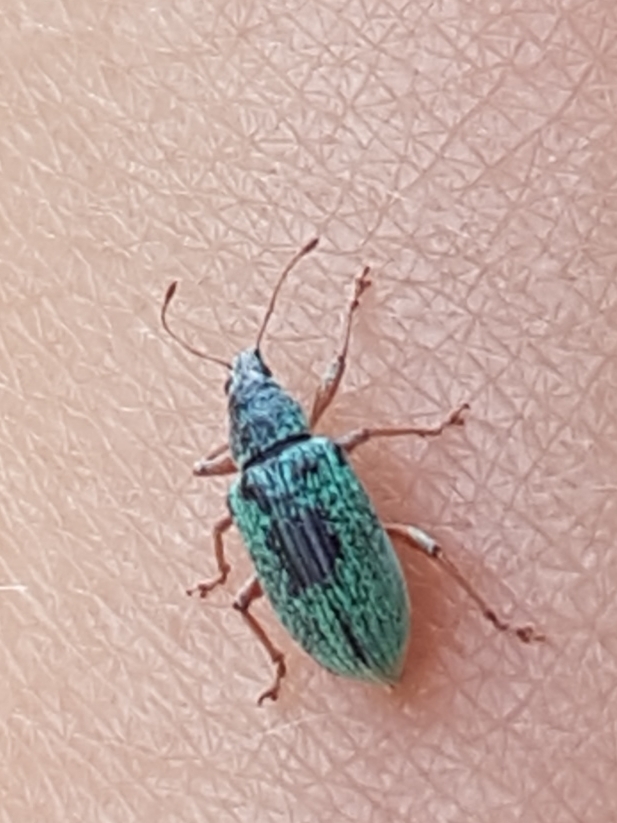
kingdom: Animalia
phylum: Arthropoda
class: Insecta
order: Coleoptera
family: Curculionidae
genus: Polydrusus
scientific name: Polydrusus formosus
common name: Weevil
